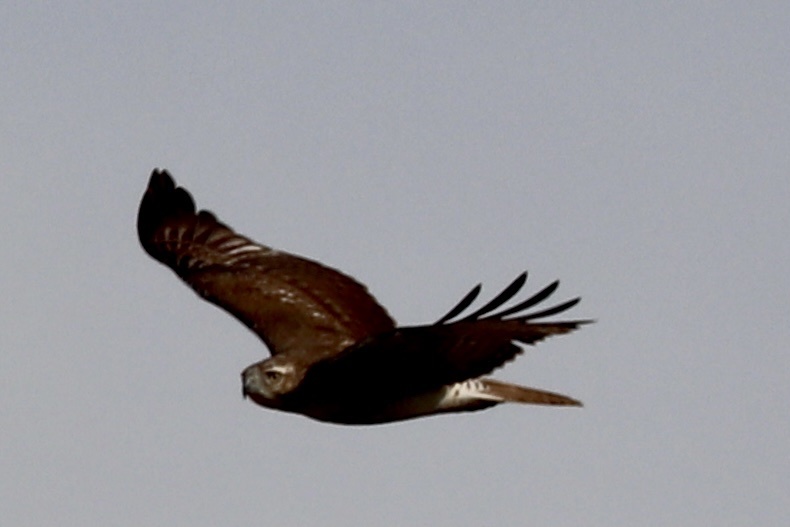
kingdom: Animalia
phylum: Chordata
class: Aves
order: Accipitriformes
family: Accipitridae
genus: Buteo
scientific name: Buteo jamaicensis
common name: Red-tailed hawk
